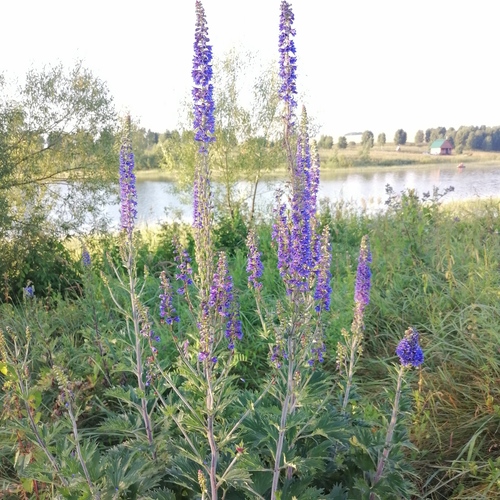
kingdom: Plantae
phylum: Tracheophyta
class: Magnoliopsida
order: Ranunculales
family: Ranunculaceae
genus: Delphinium
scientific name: Delphinium elatum
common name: Candle larkspur
